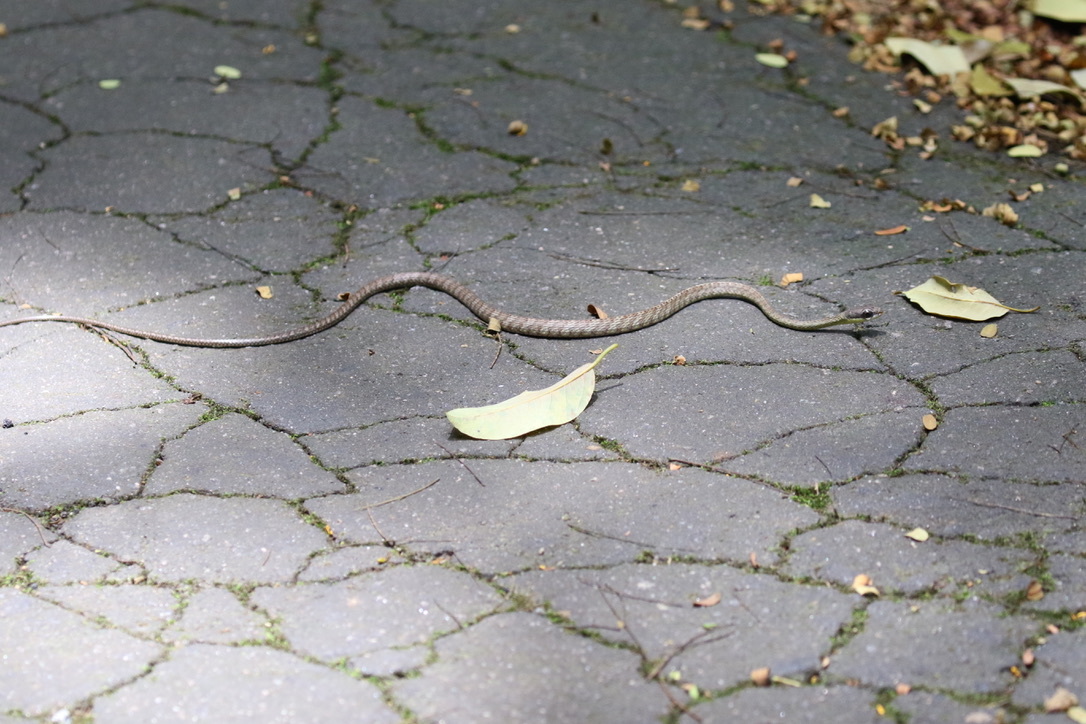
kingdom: Animalia
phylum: Chordata
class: Squamata
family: Colubridae
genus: Chironius
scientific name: Chironius foveatus
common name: South american sipo
